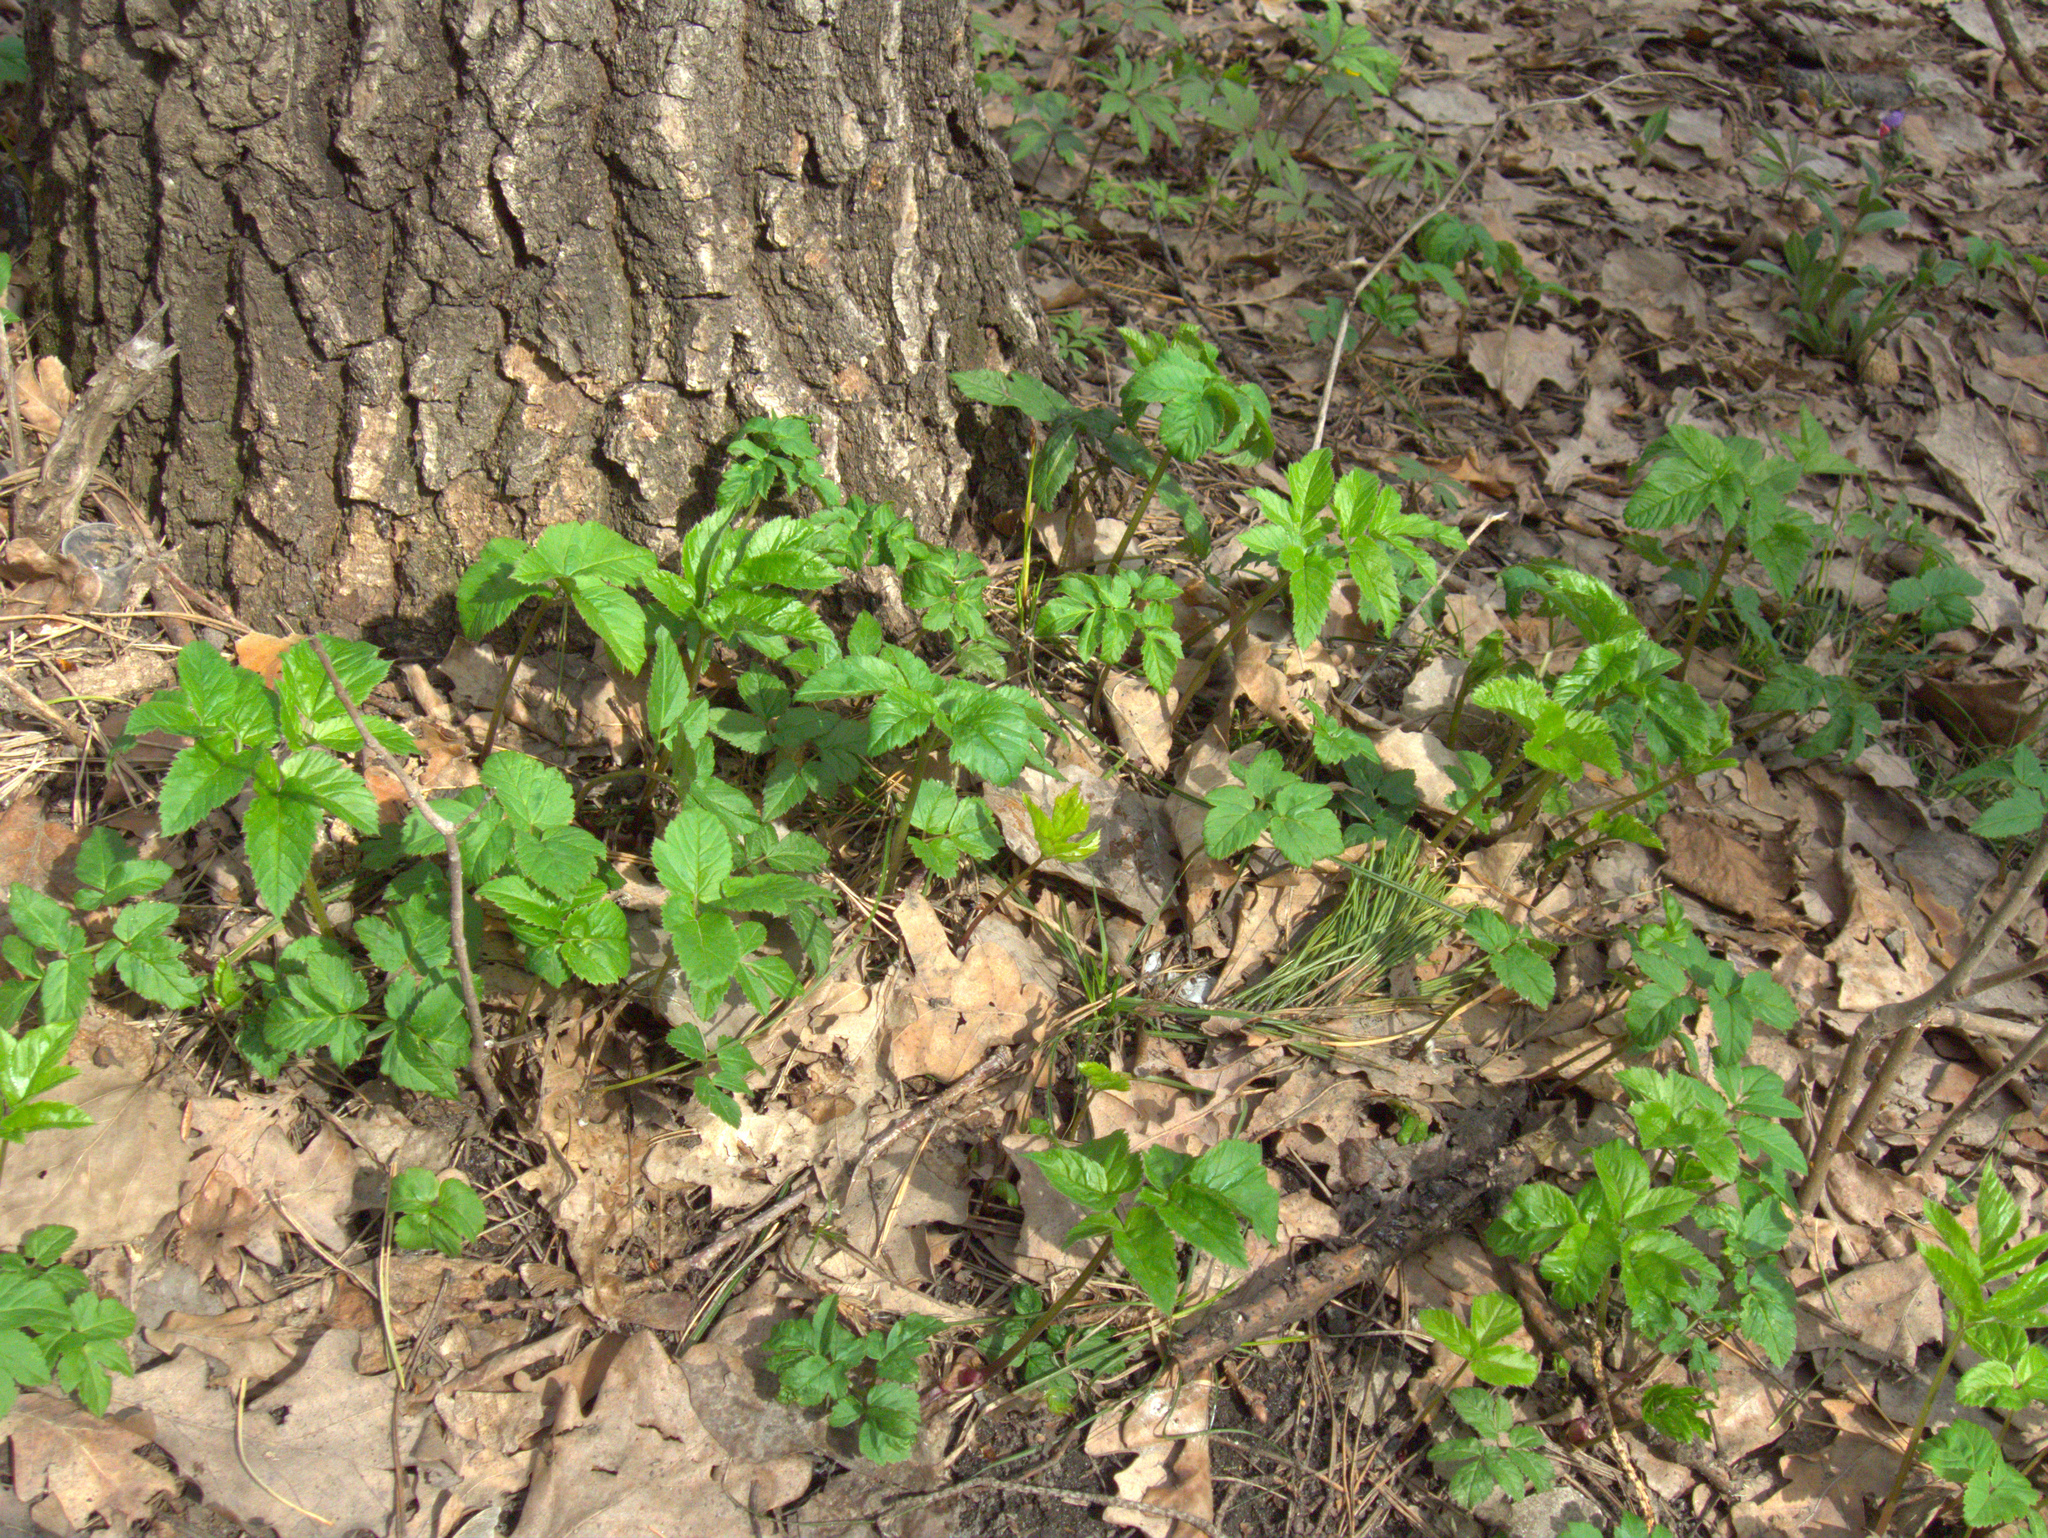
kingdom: Plantae
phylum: Tracheophyta
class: Magnoliopsida
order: Apiales
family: Apiaceae
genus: Aegopodium
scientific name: Aegopodium podagraria
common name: Ground-elder
